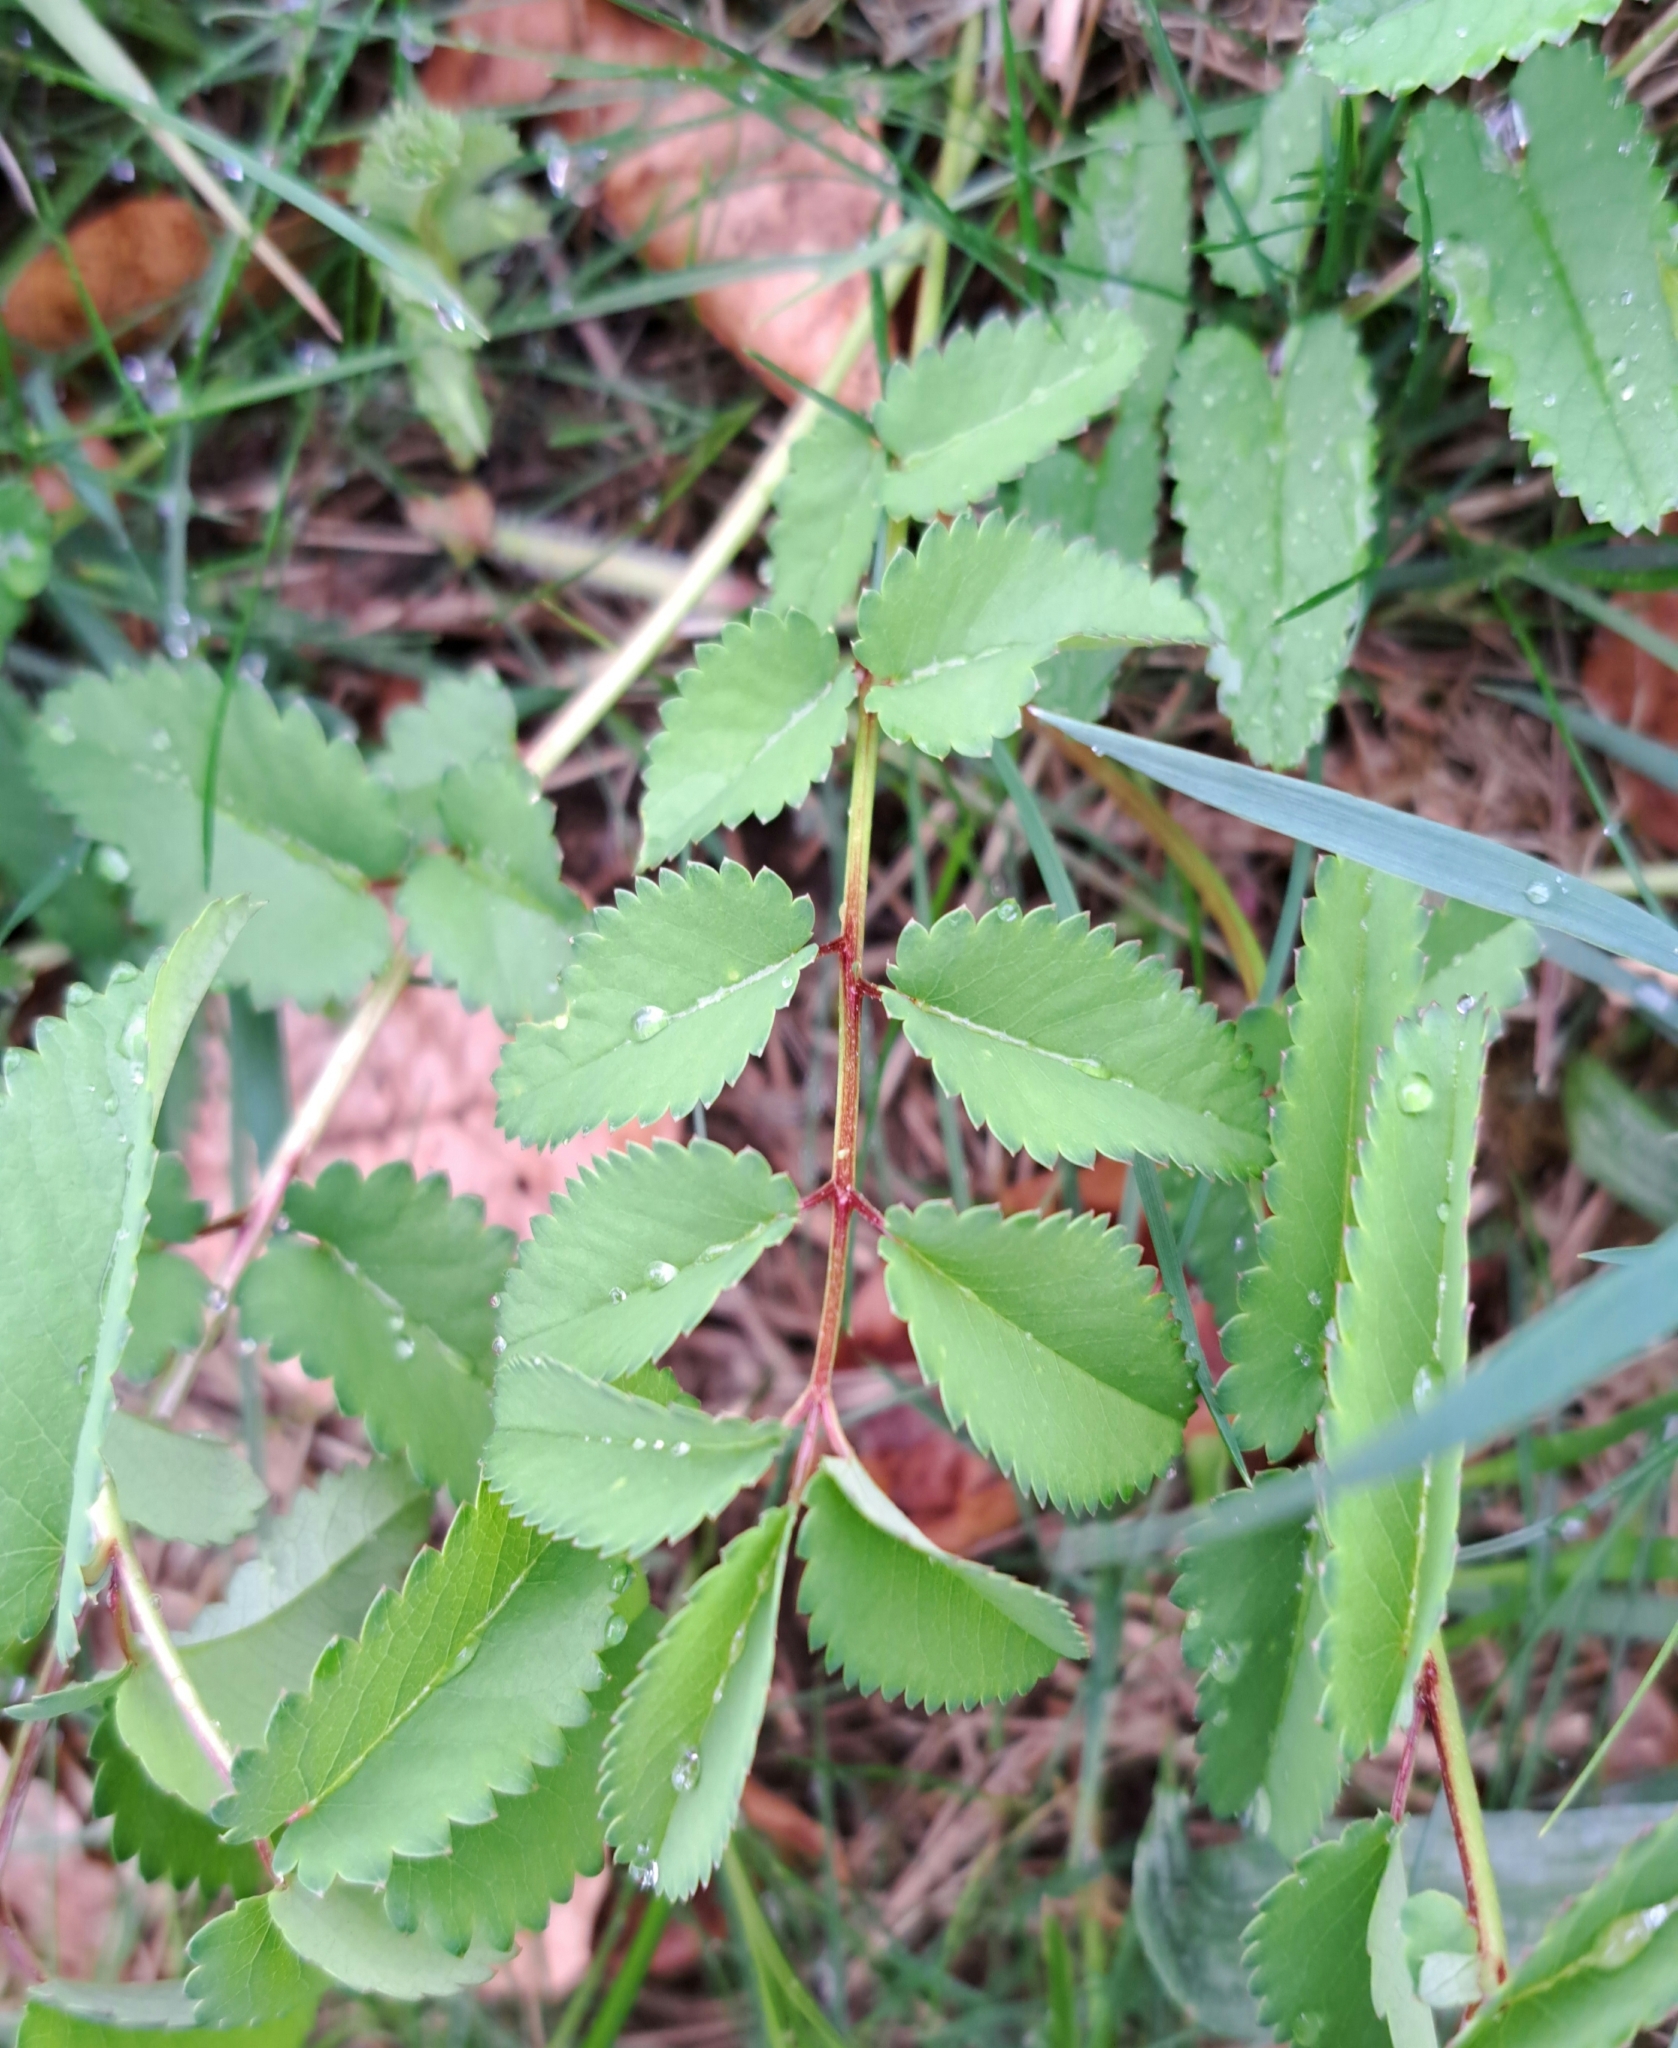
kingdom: Plantae
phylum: Tracheophyta
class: Magnoliopsida
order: Rosales
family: Rosaceae
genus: Sanguisorba
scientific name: Sanguisorba officinalis
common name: Great burnet
